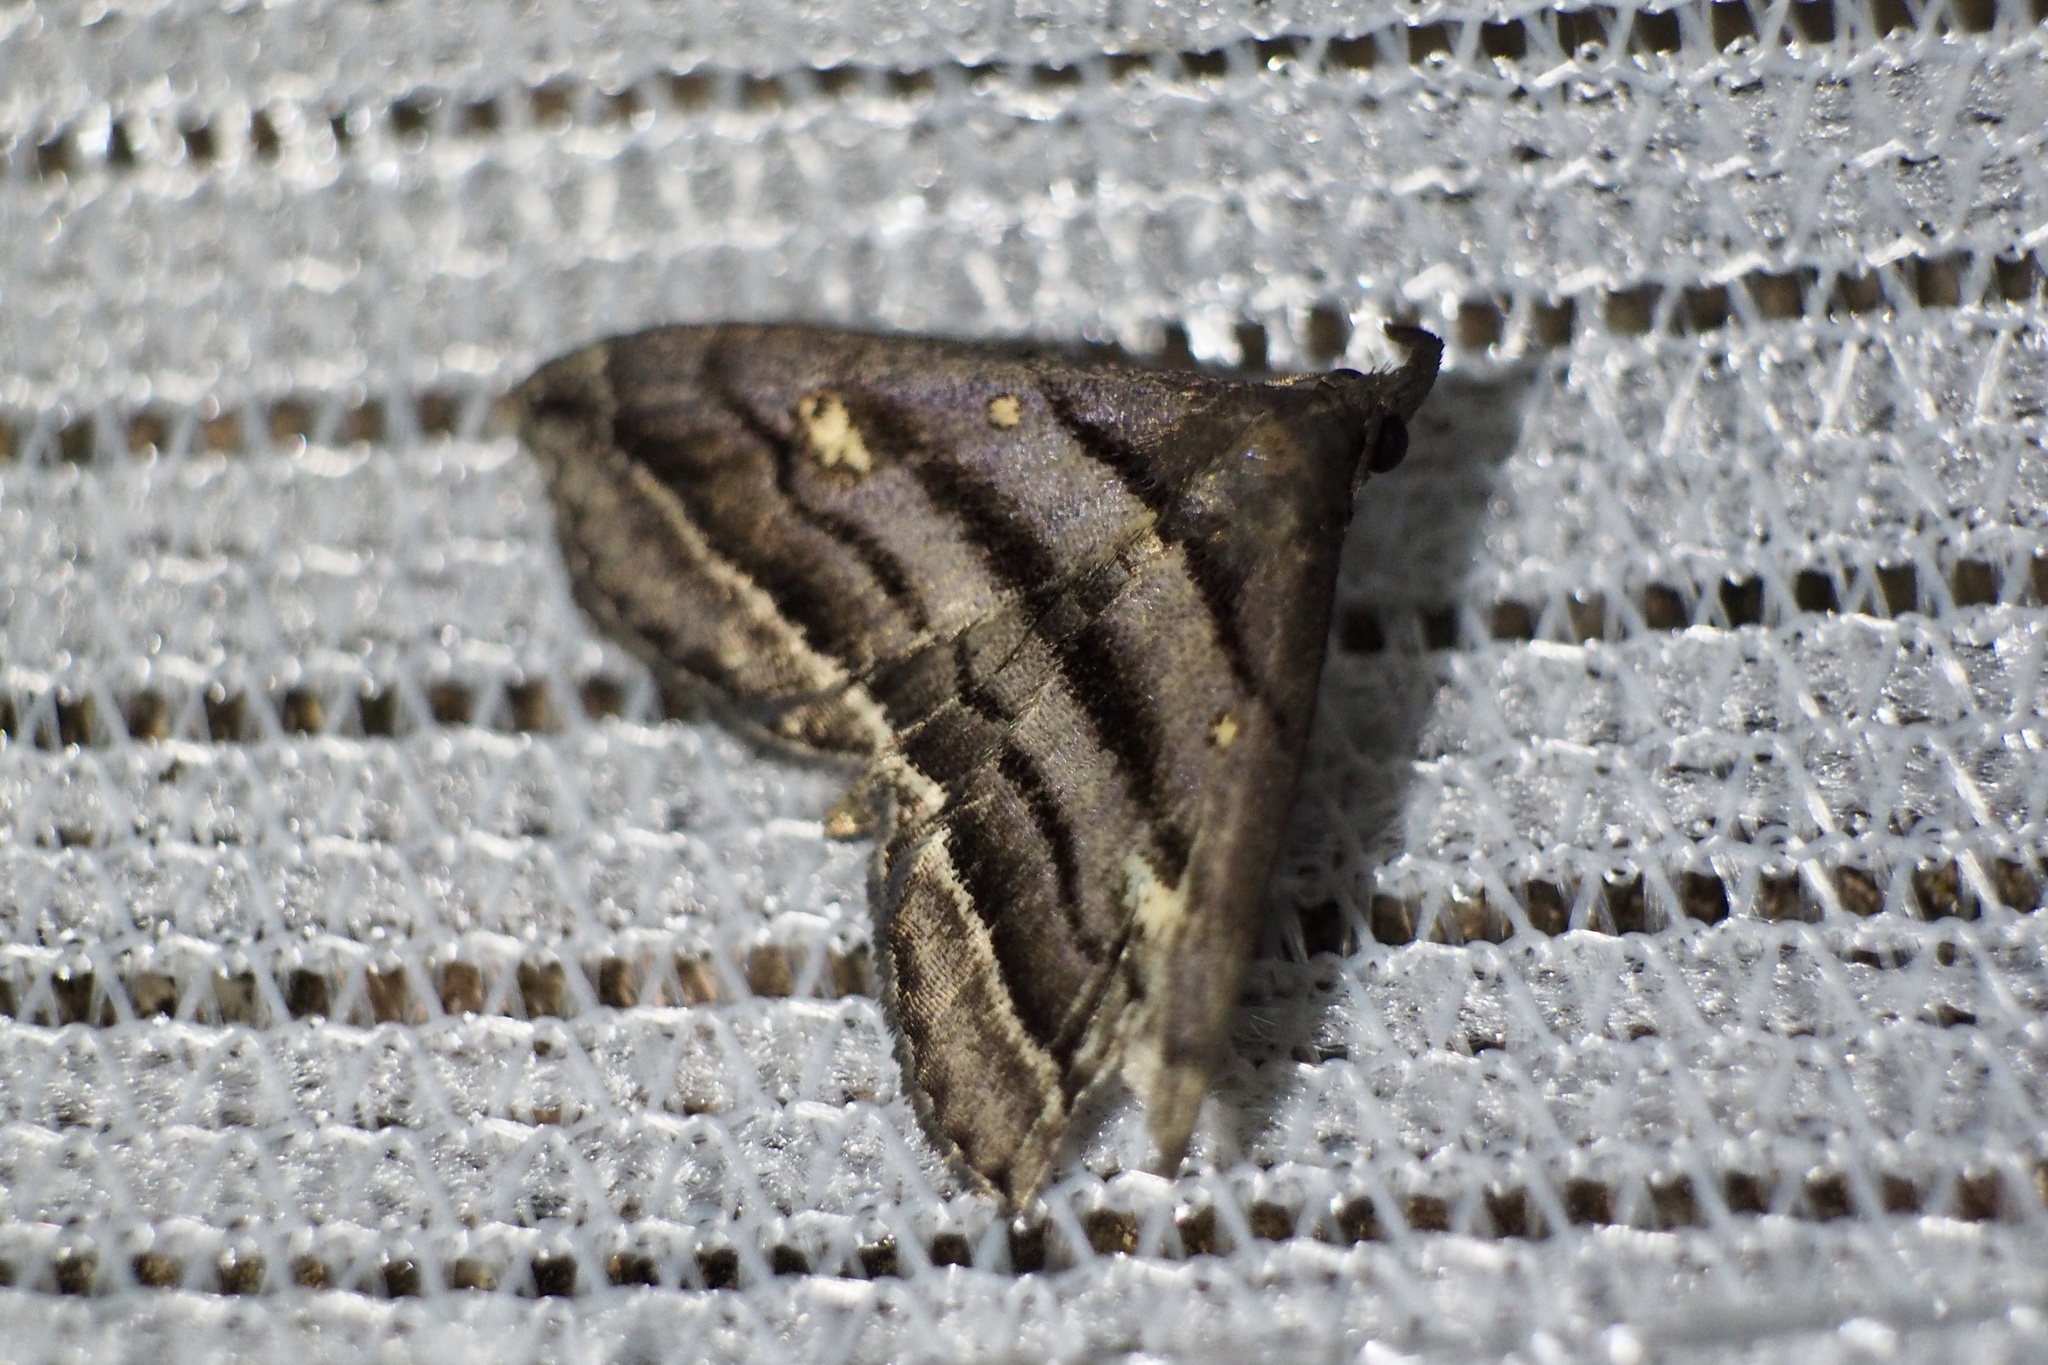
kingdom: Animalia
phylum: Arthropoda
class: Insecta
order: Lepidoptera
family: Erebidae
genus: Paracolax
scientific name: Paracolax pryeri
